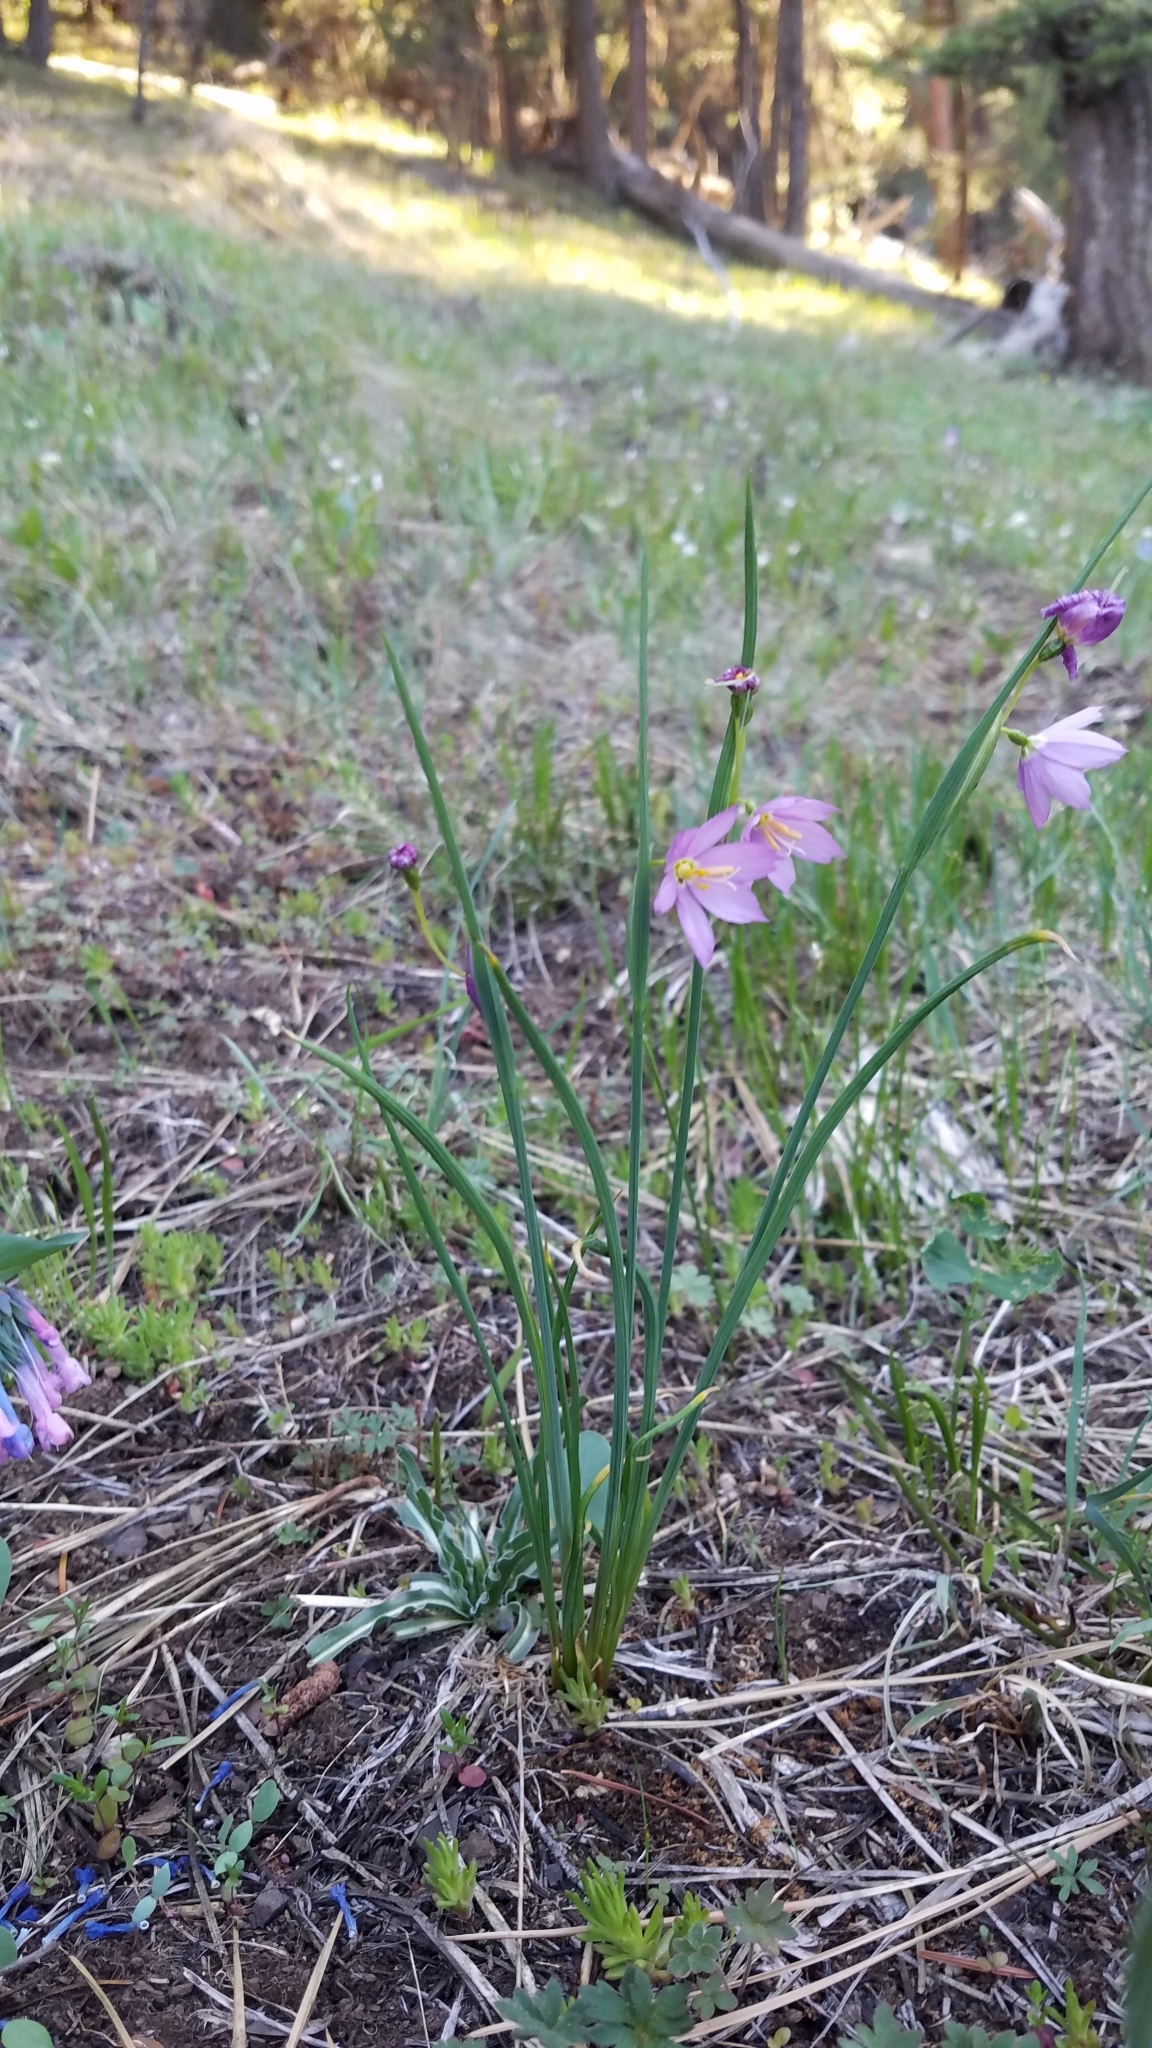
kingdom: Plantae
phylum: Tracheophyta
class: Liliopsida
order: Asparagales
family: Iridaceae
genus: Olsynium
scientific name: Olsynium douglasii
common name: Douglas' grasswidow
